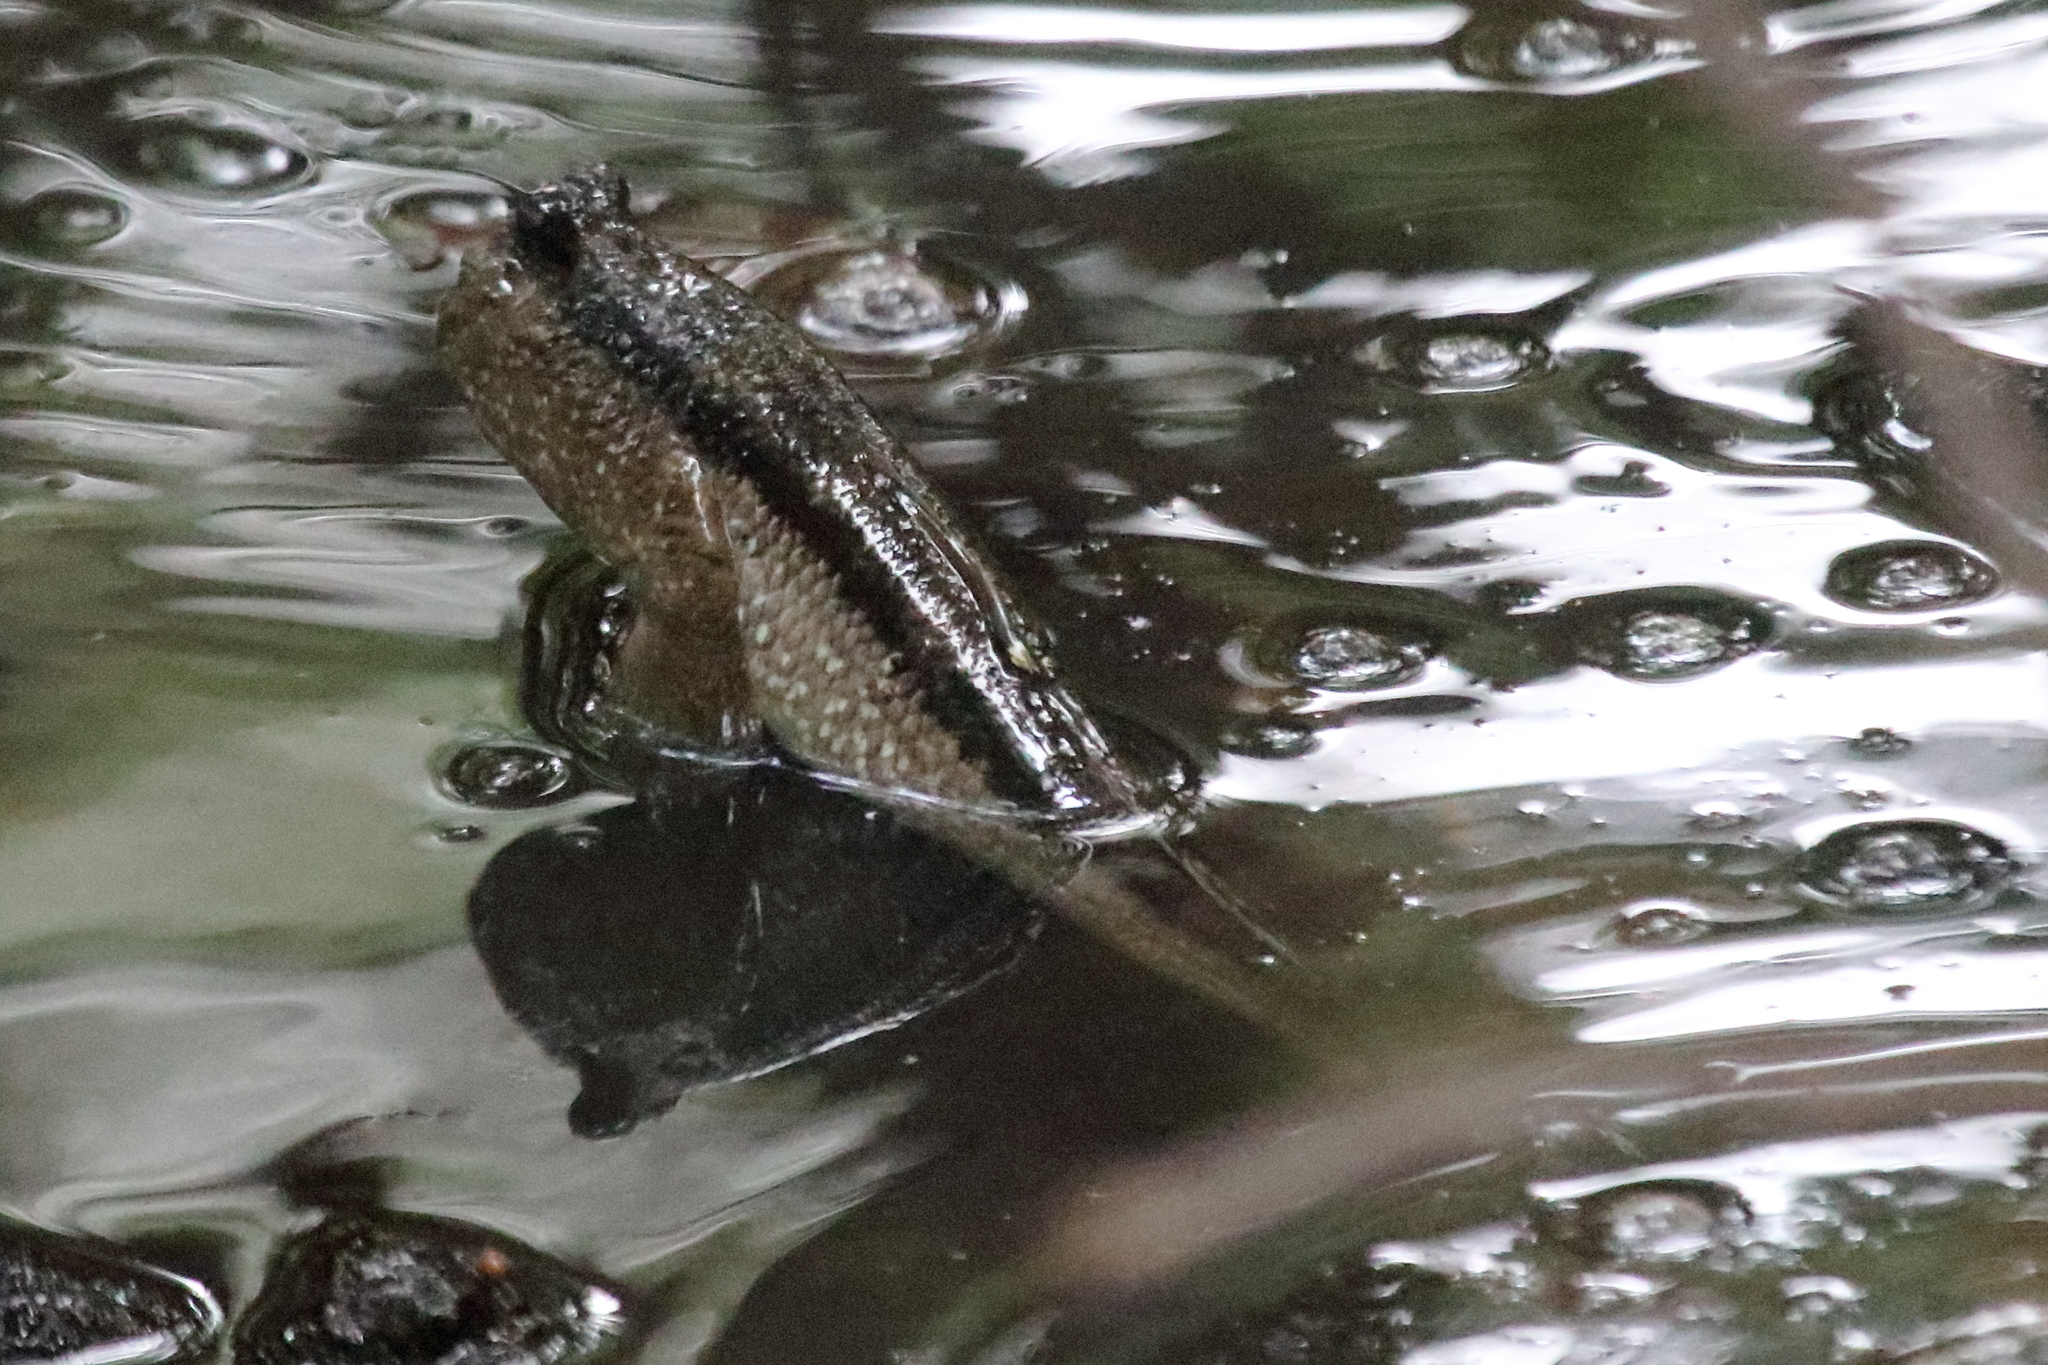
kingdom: Animalia
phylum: Chordata
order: Perciformes
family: Gobiidae
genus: Periophthalmodon
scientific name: Periophthalmodon schlosseri
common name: Giant mudskipper
